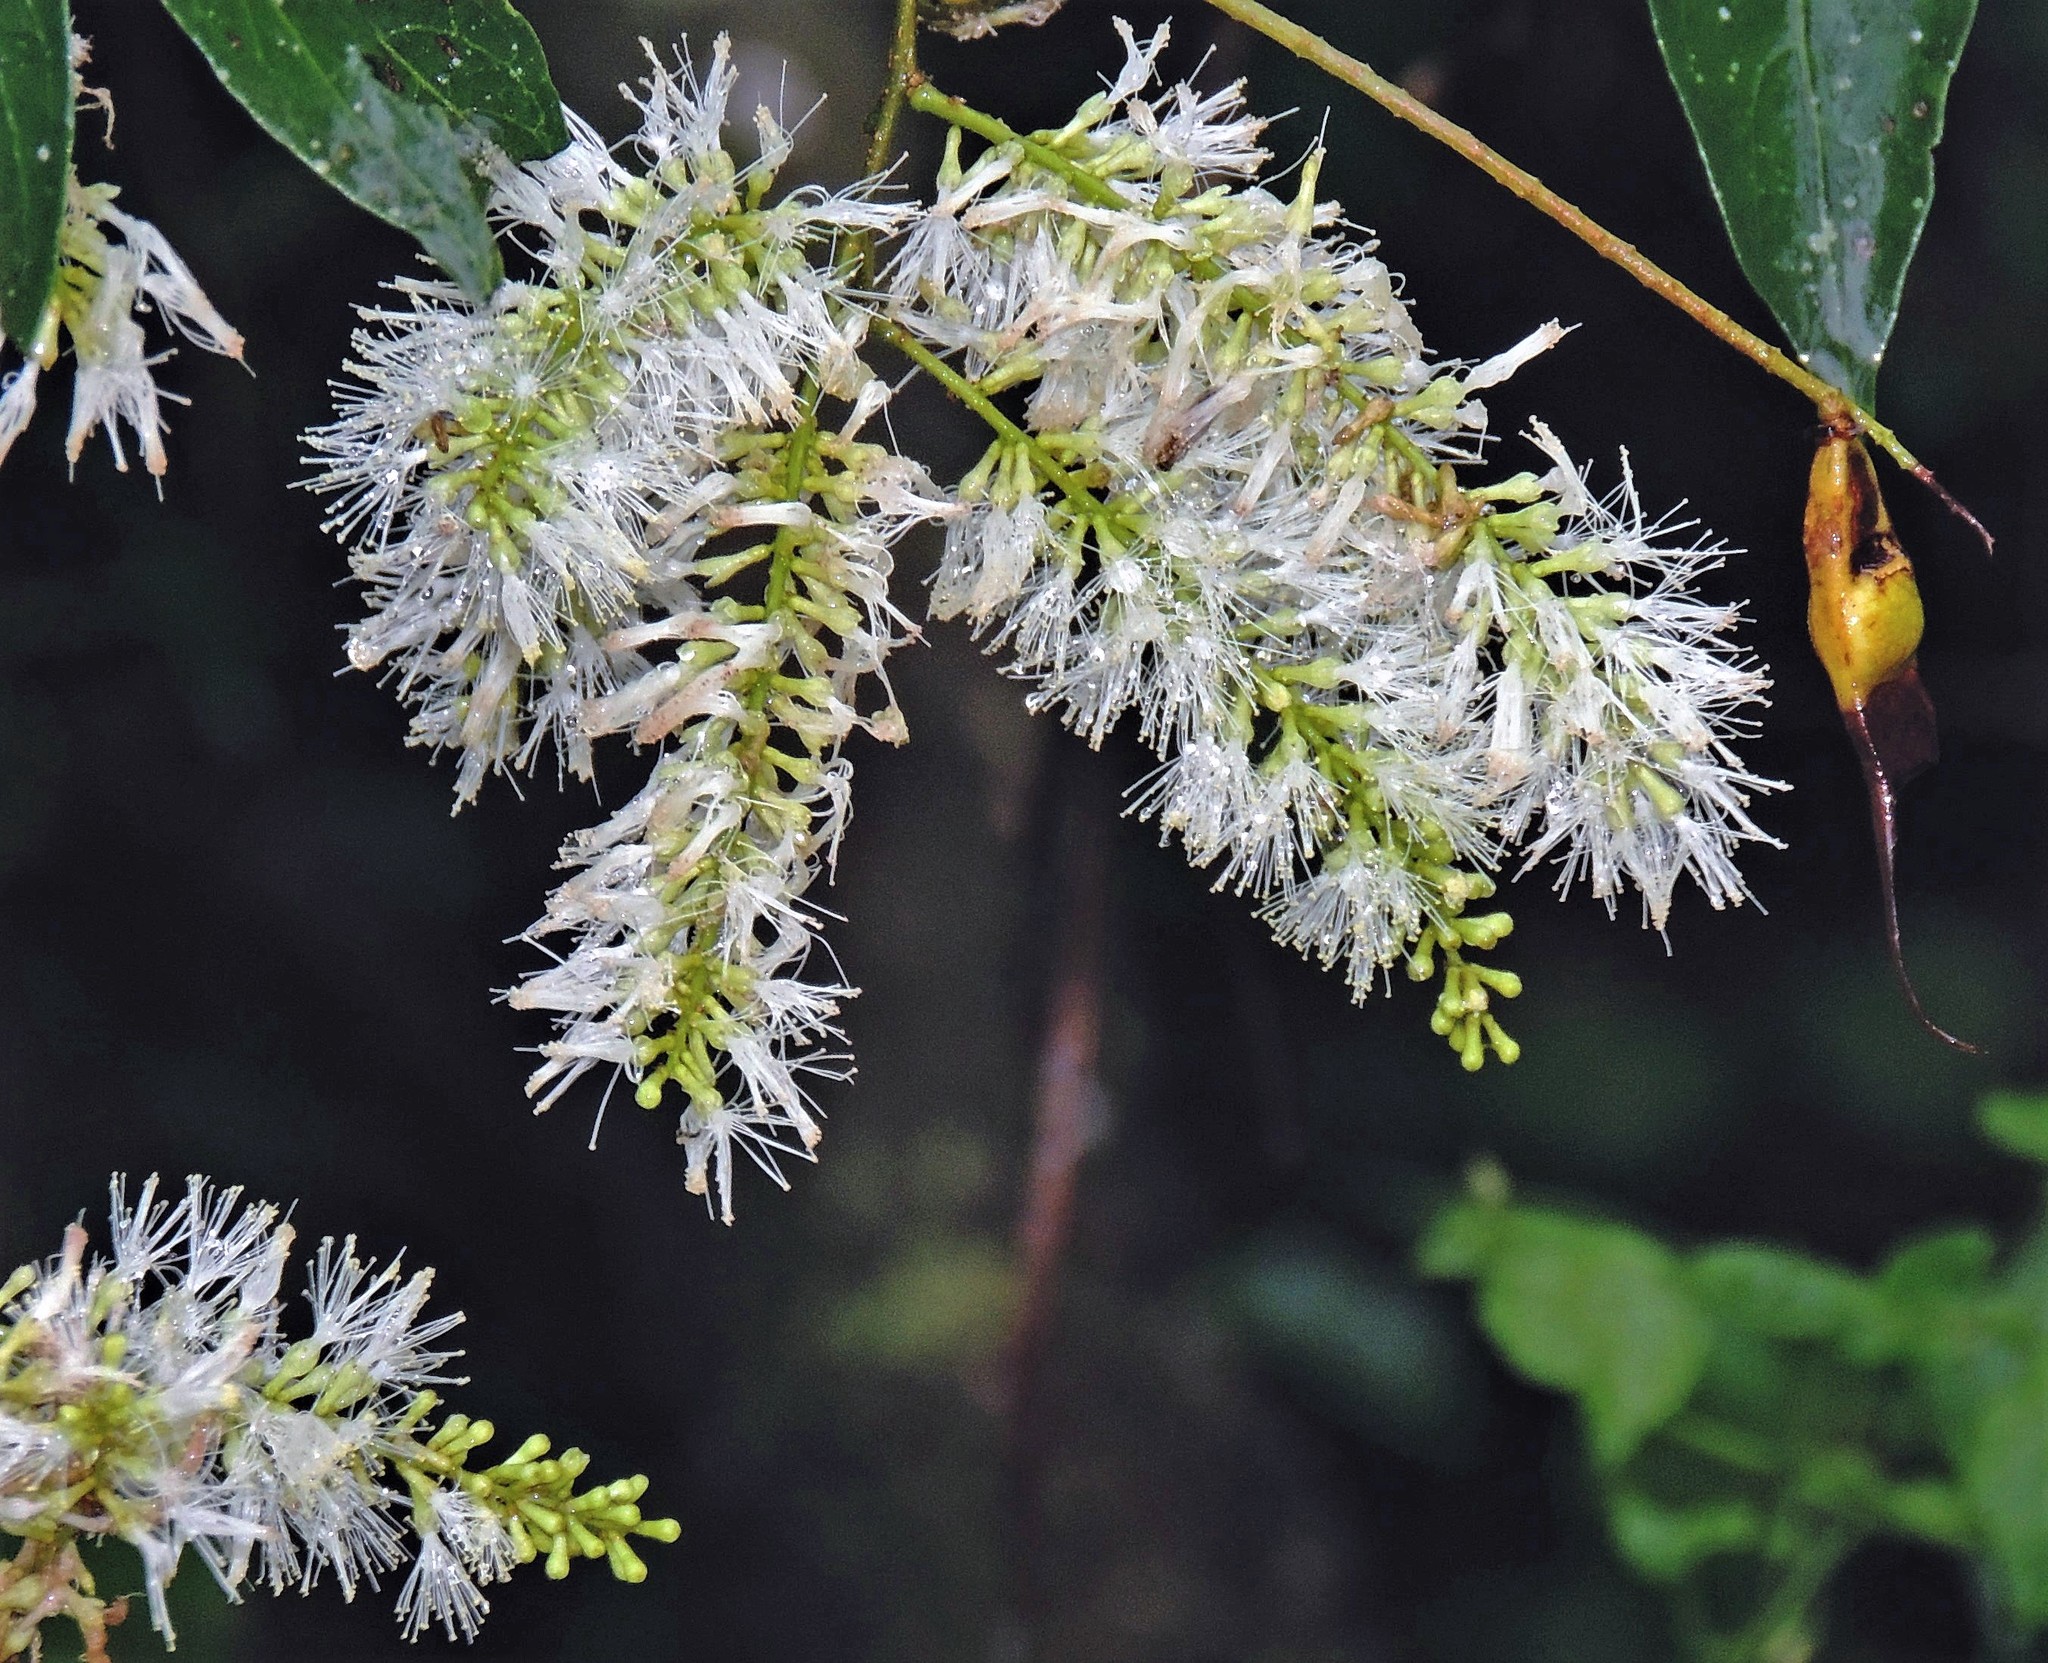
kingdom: Plantae
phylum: Tracheophyta
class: Magnoliopsida
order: Fabales
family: Fabaceae
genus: Inga
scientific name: Inga marginata
